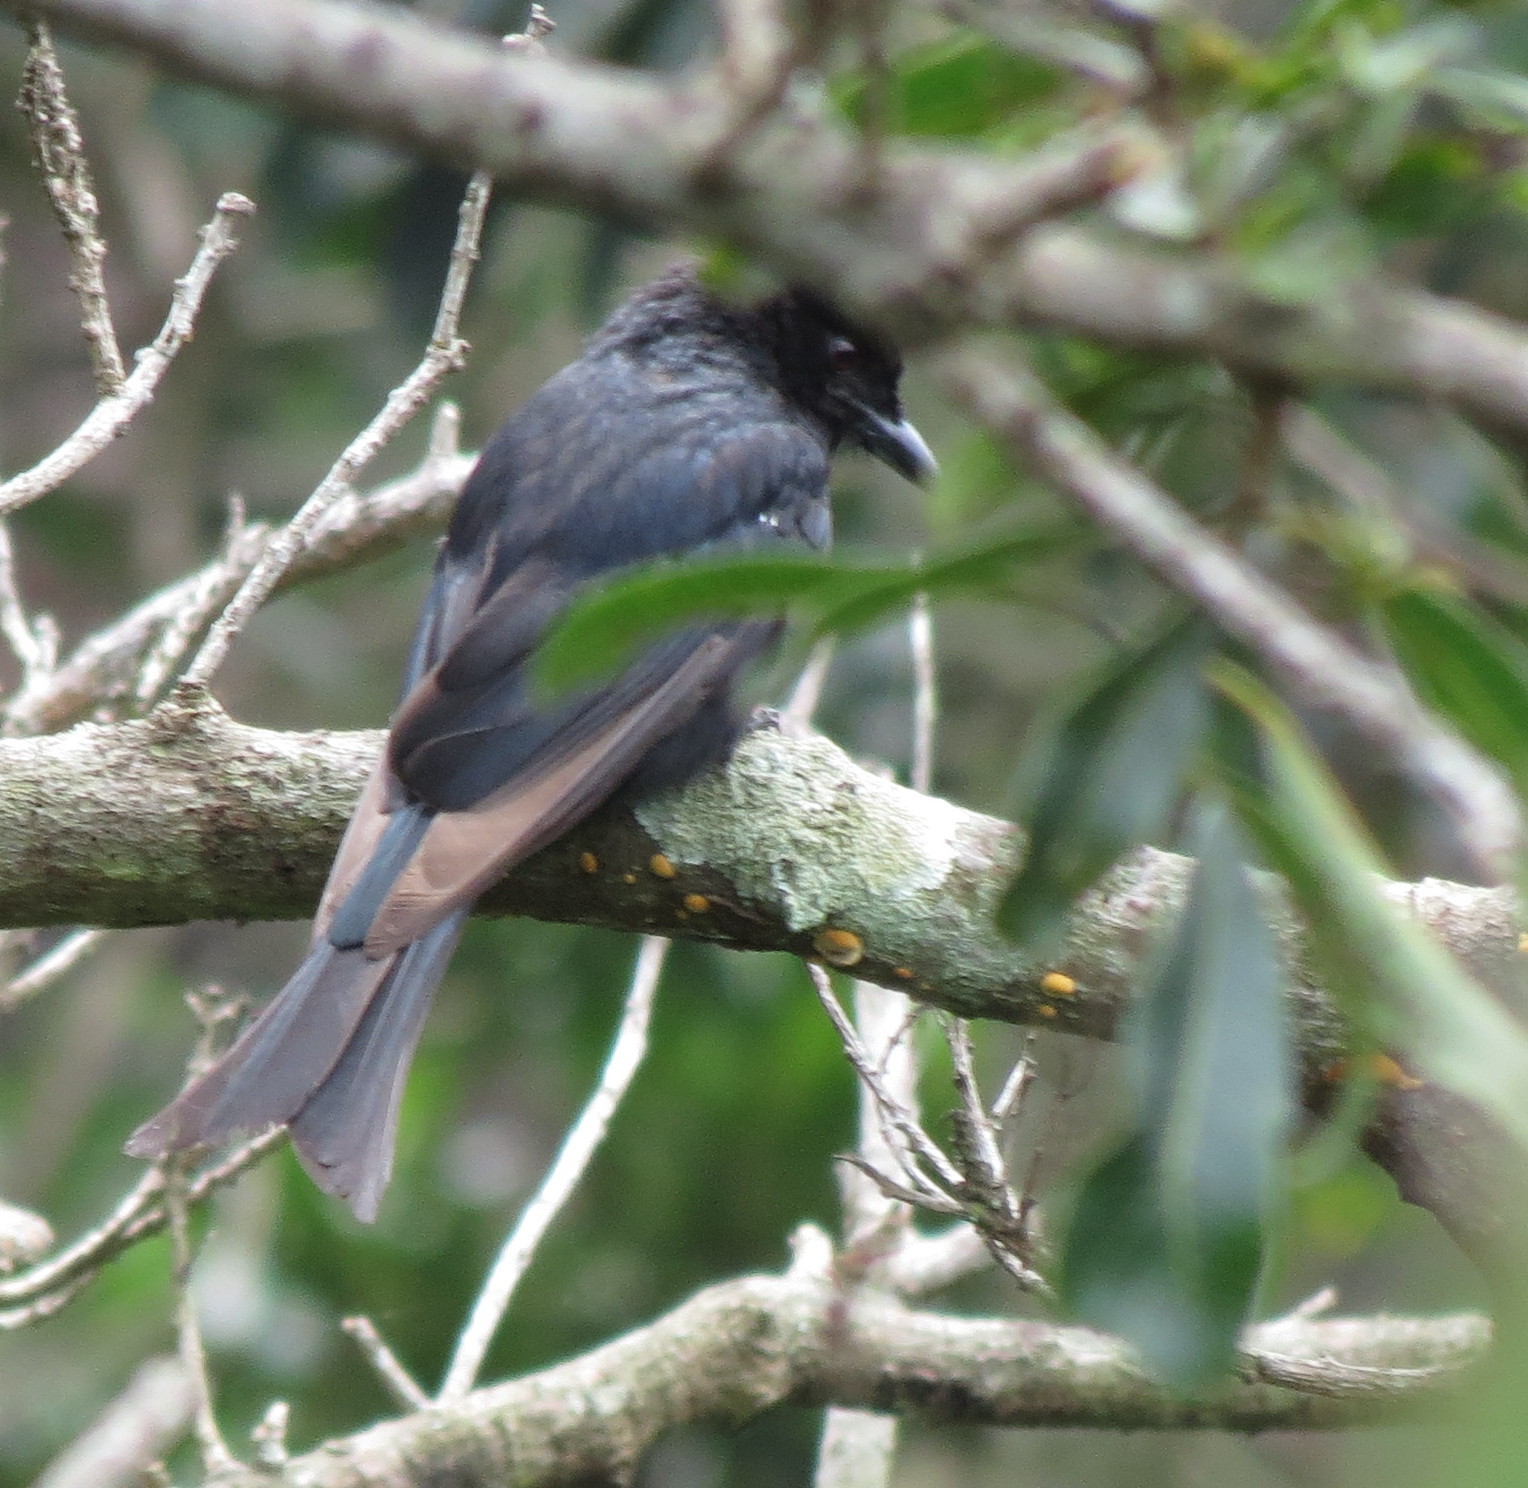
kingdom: Animalia
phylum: Chordata
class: Aves
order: Passeriformes
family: Dicruridae
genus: Dicrurus
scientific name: Dicrurus adsimilis
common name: Fork-tailed drongo
